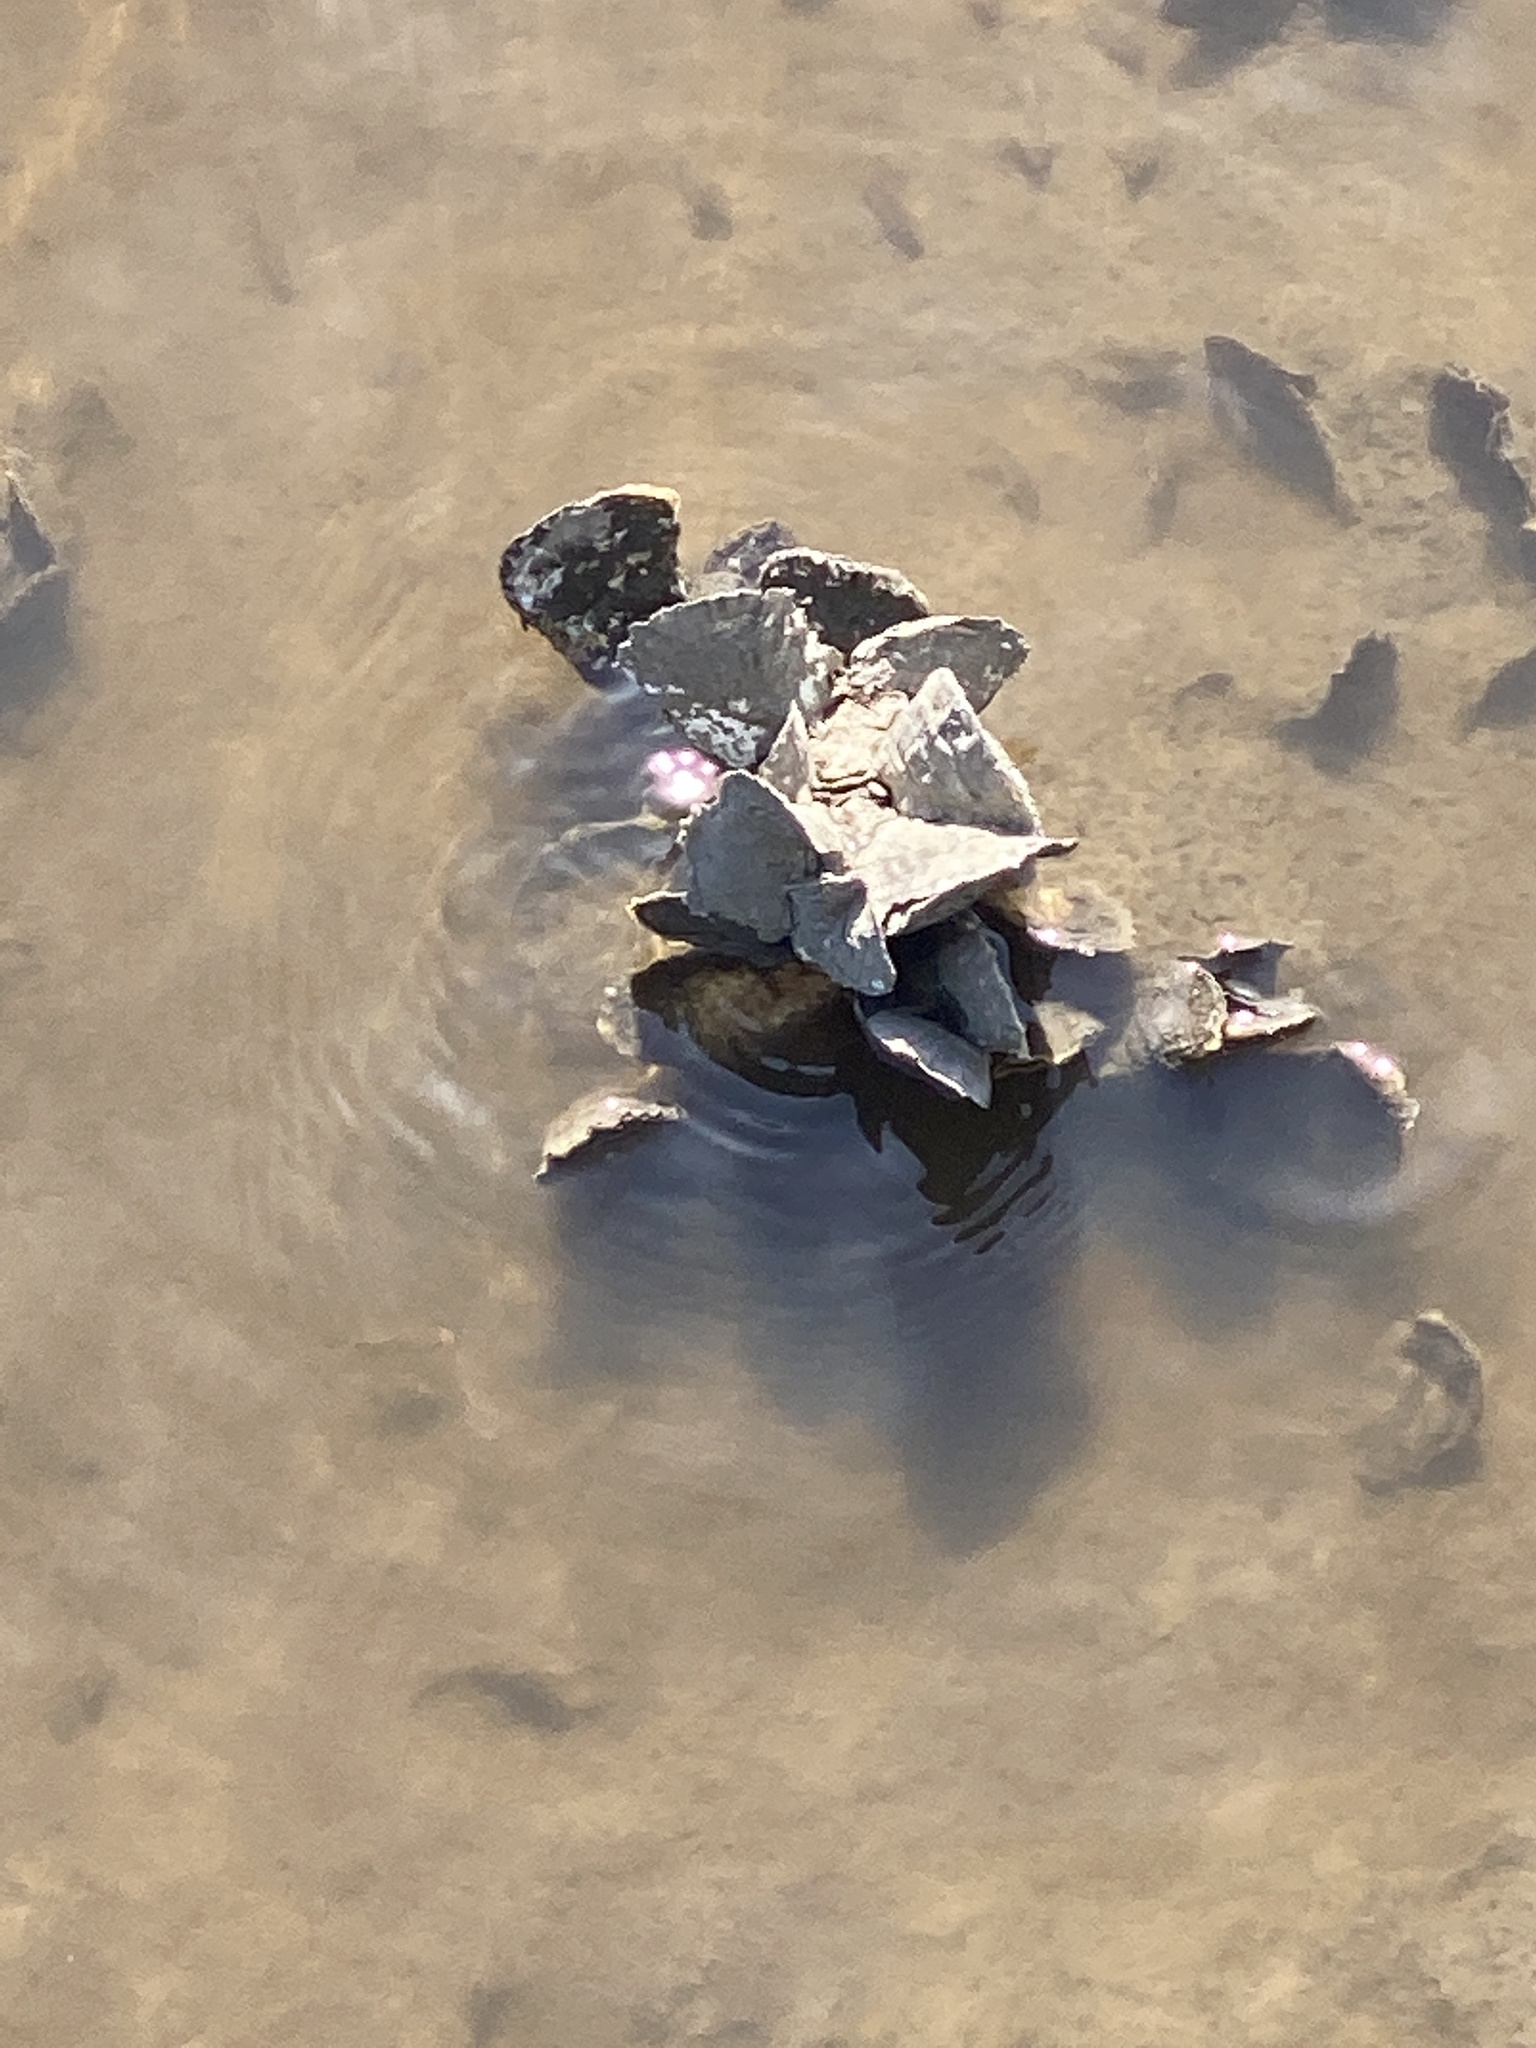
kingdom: Animalia
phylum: Mollusca
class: Bivalvia
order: Ostreida
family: Ostreidae
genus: Crassostrea
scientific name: Crassostrea virginica
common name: American oyster
